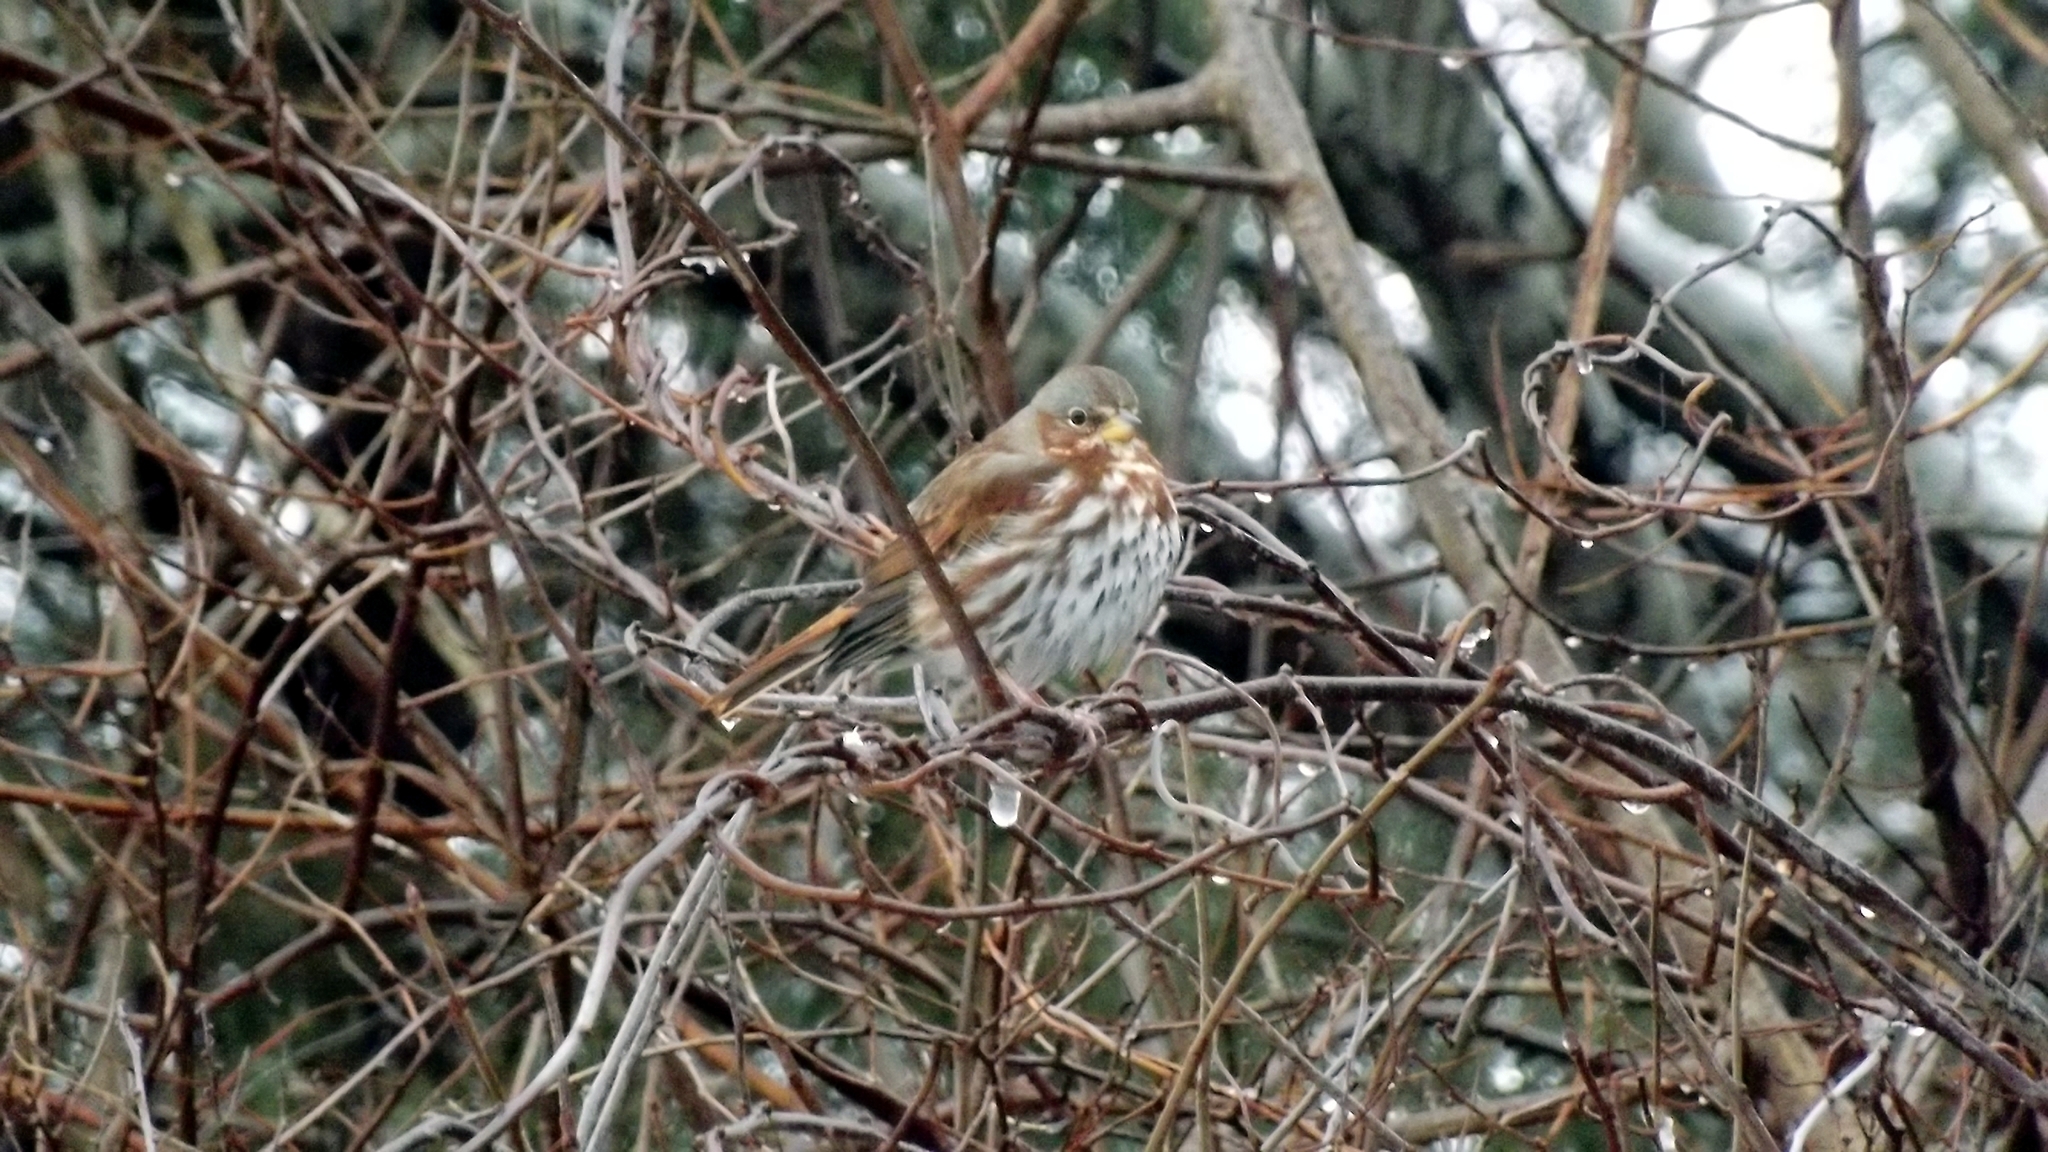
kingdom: Animalia
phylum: Chordata
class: Aves
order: Passeriformes
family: Passerellidae
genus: Passerella
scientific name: Passerella iliaca
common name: Fox sparrow
